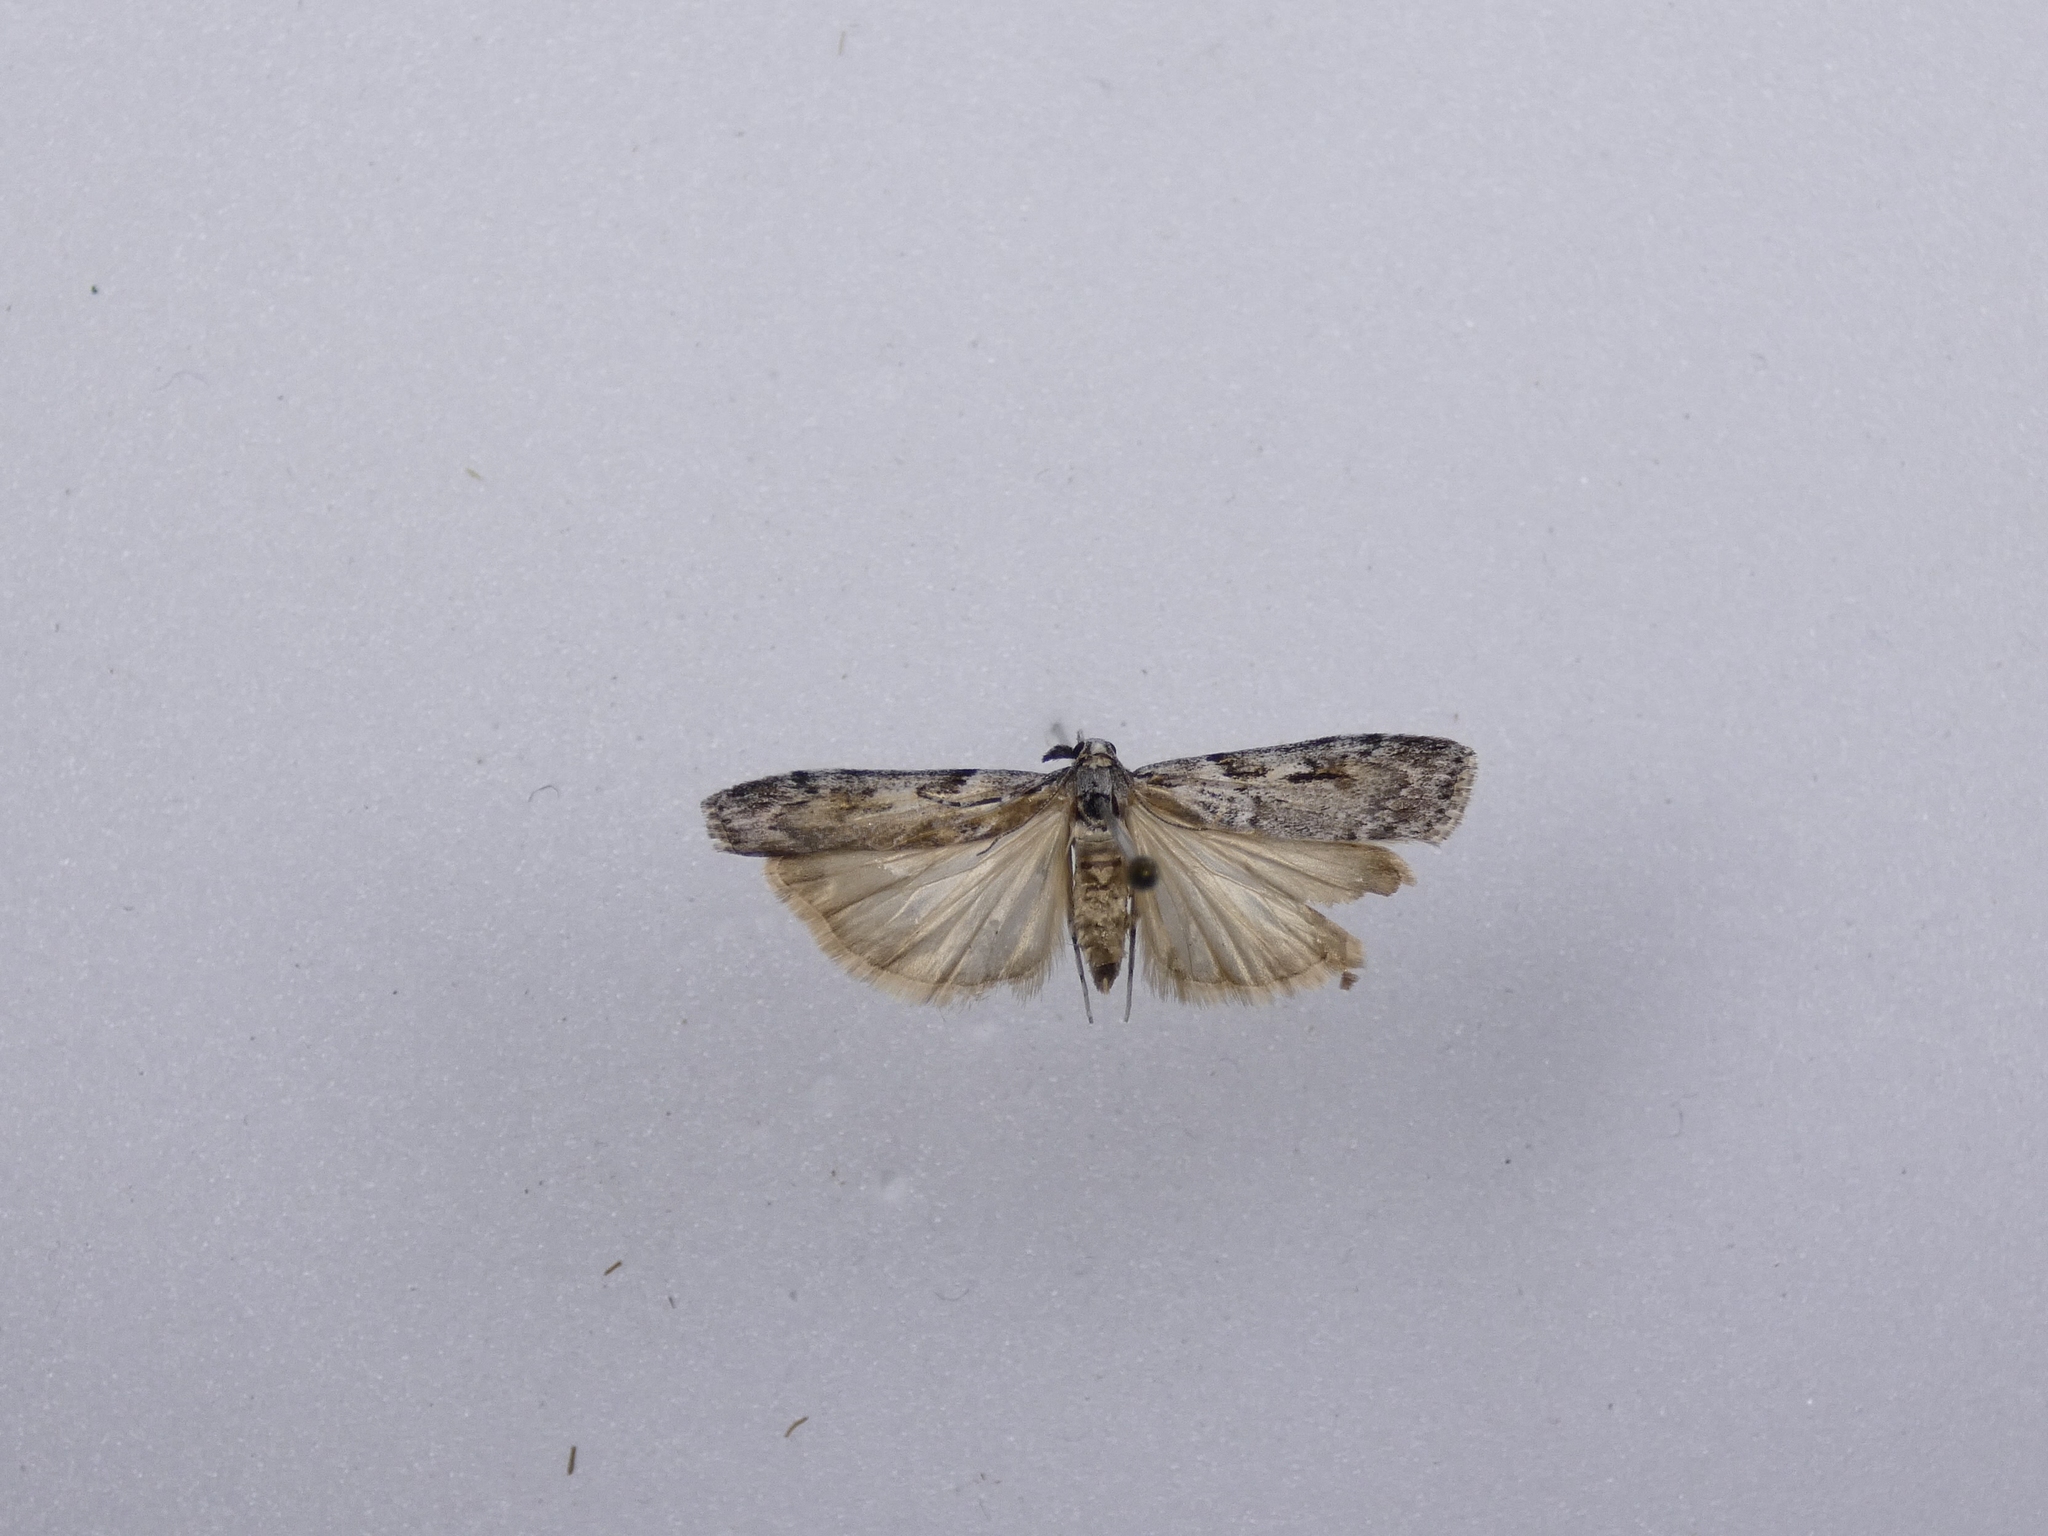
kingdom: Animalia
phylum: Arthropoda
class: Insecta
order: Lepidoptera
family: Crambidae
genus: Scoparia
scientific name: Scoparia halopis
